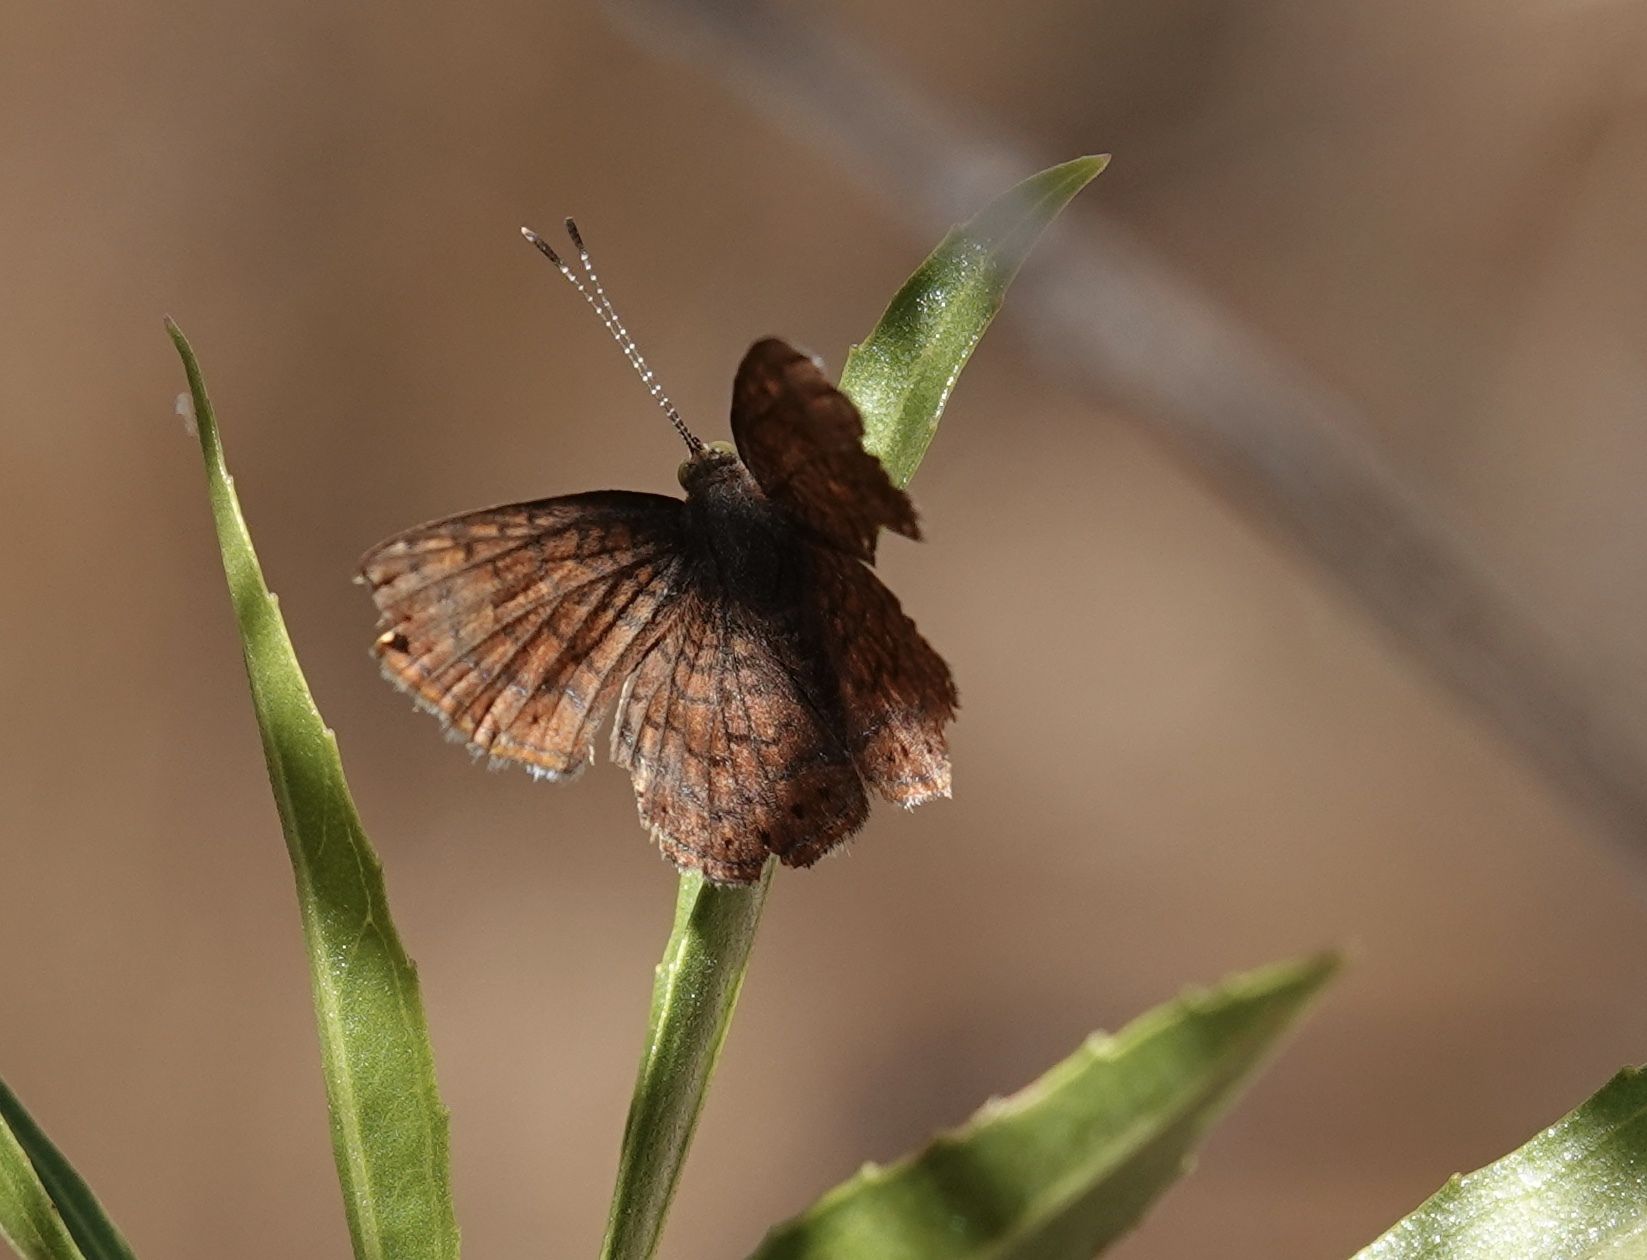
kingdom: Animalia
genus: Calephelis
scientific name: Calephelis arizonensis
